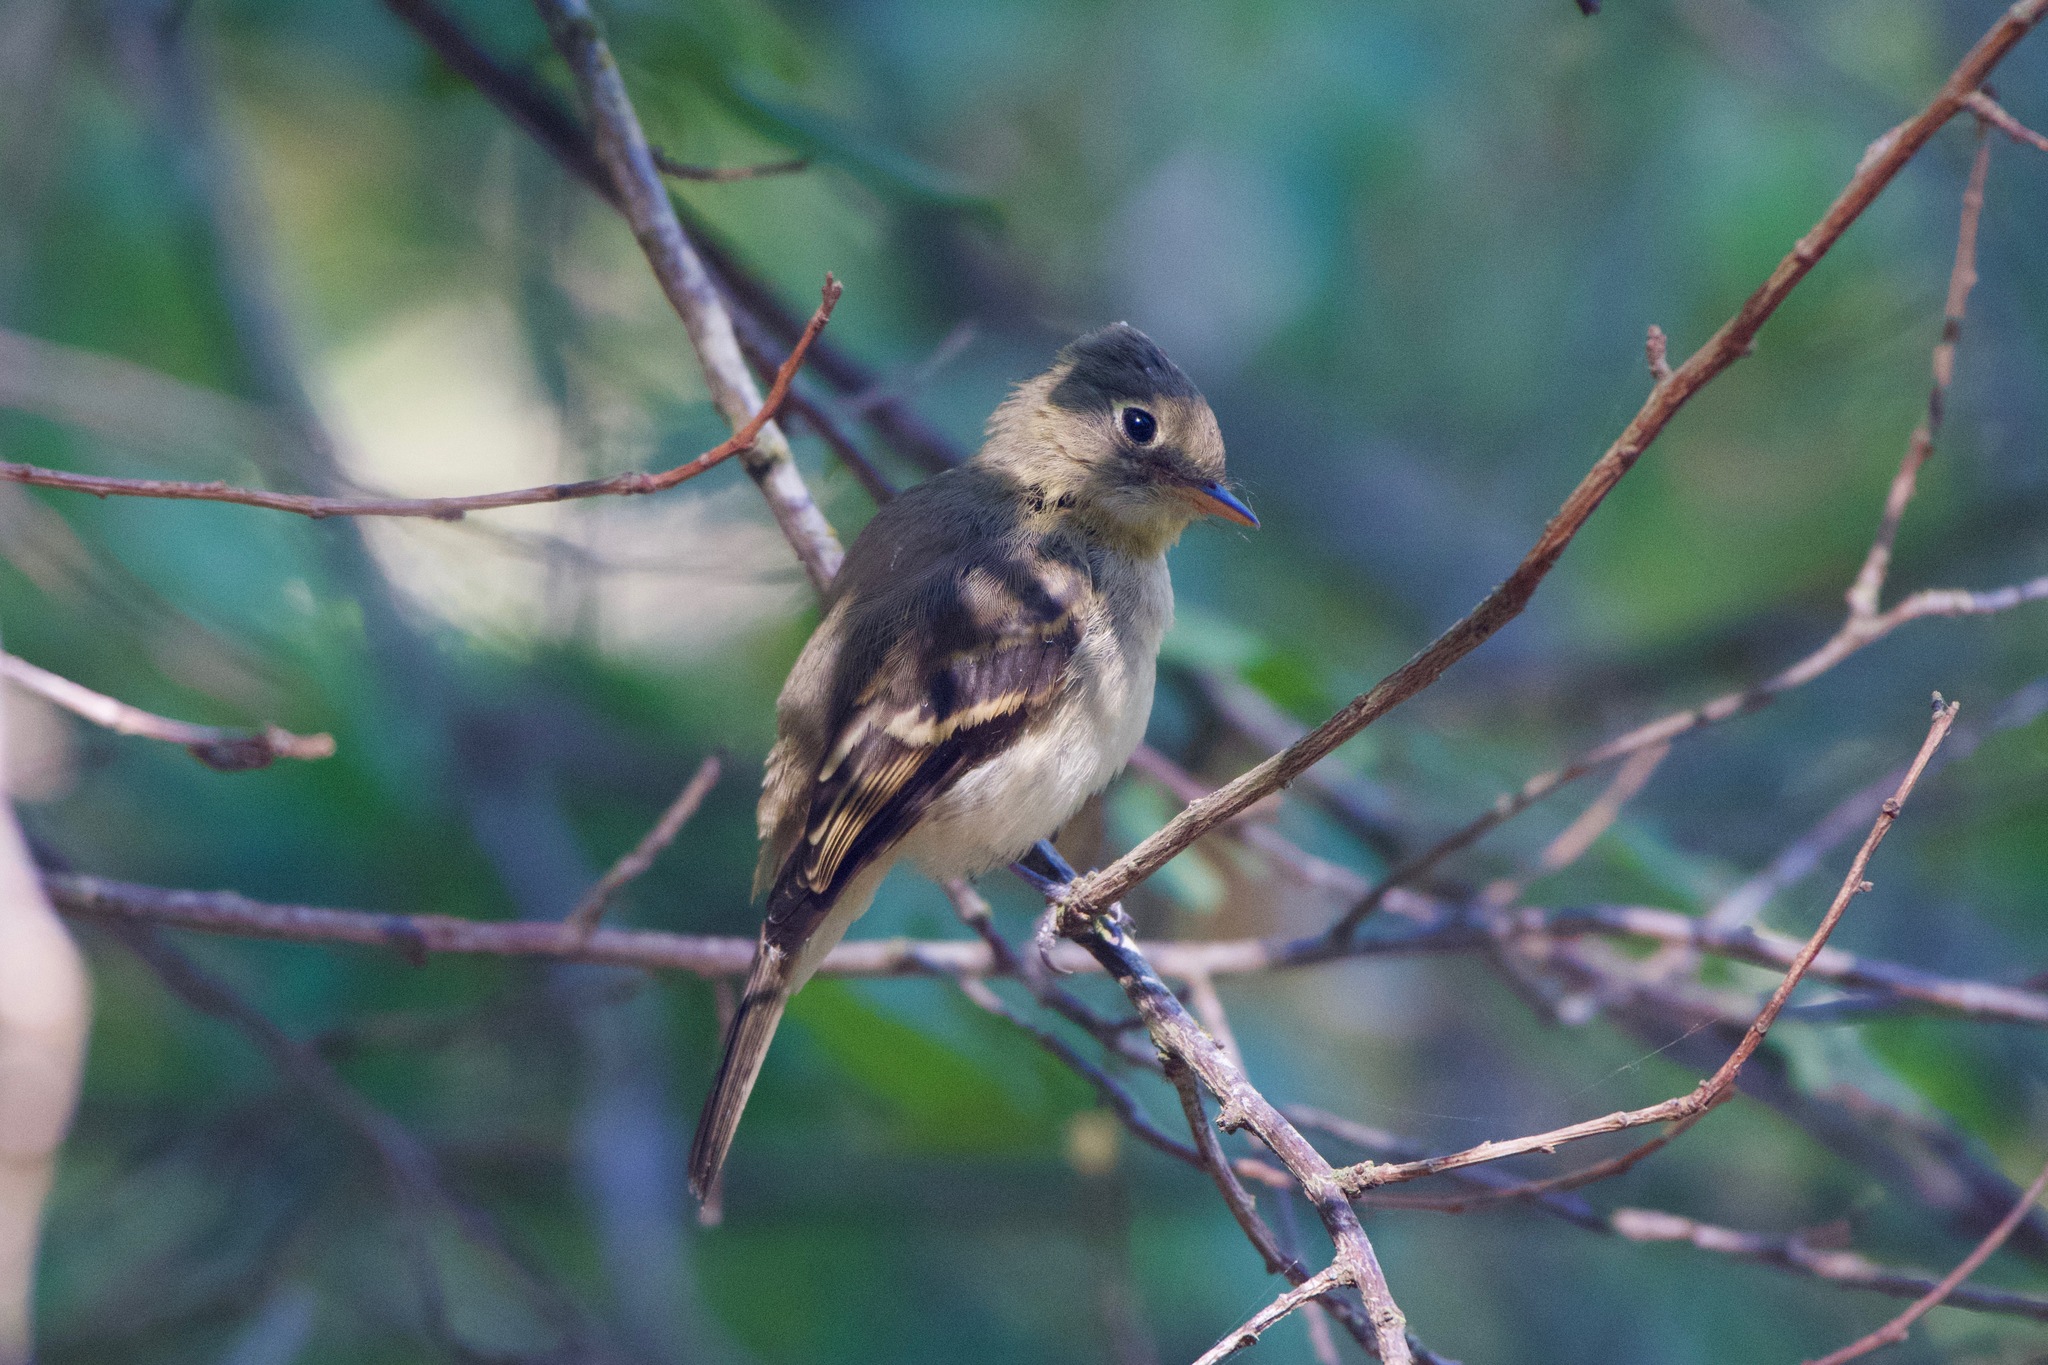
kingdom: Animalia
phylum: Chordata
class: Aves
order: Passeriformes
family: Tyrannidae
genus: Empidonax
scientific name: Empidonax difficilis
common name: Pacific-slope flycatcher
